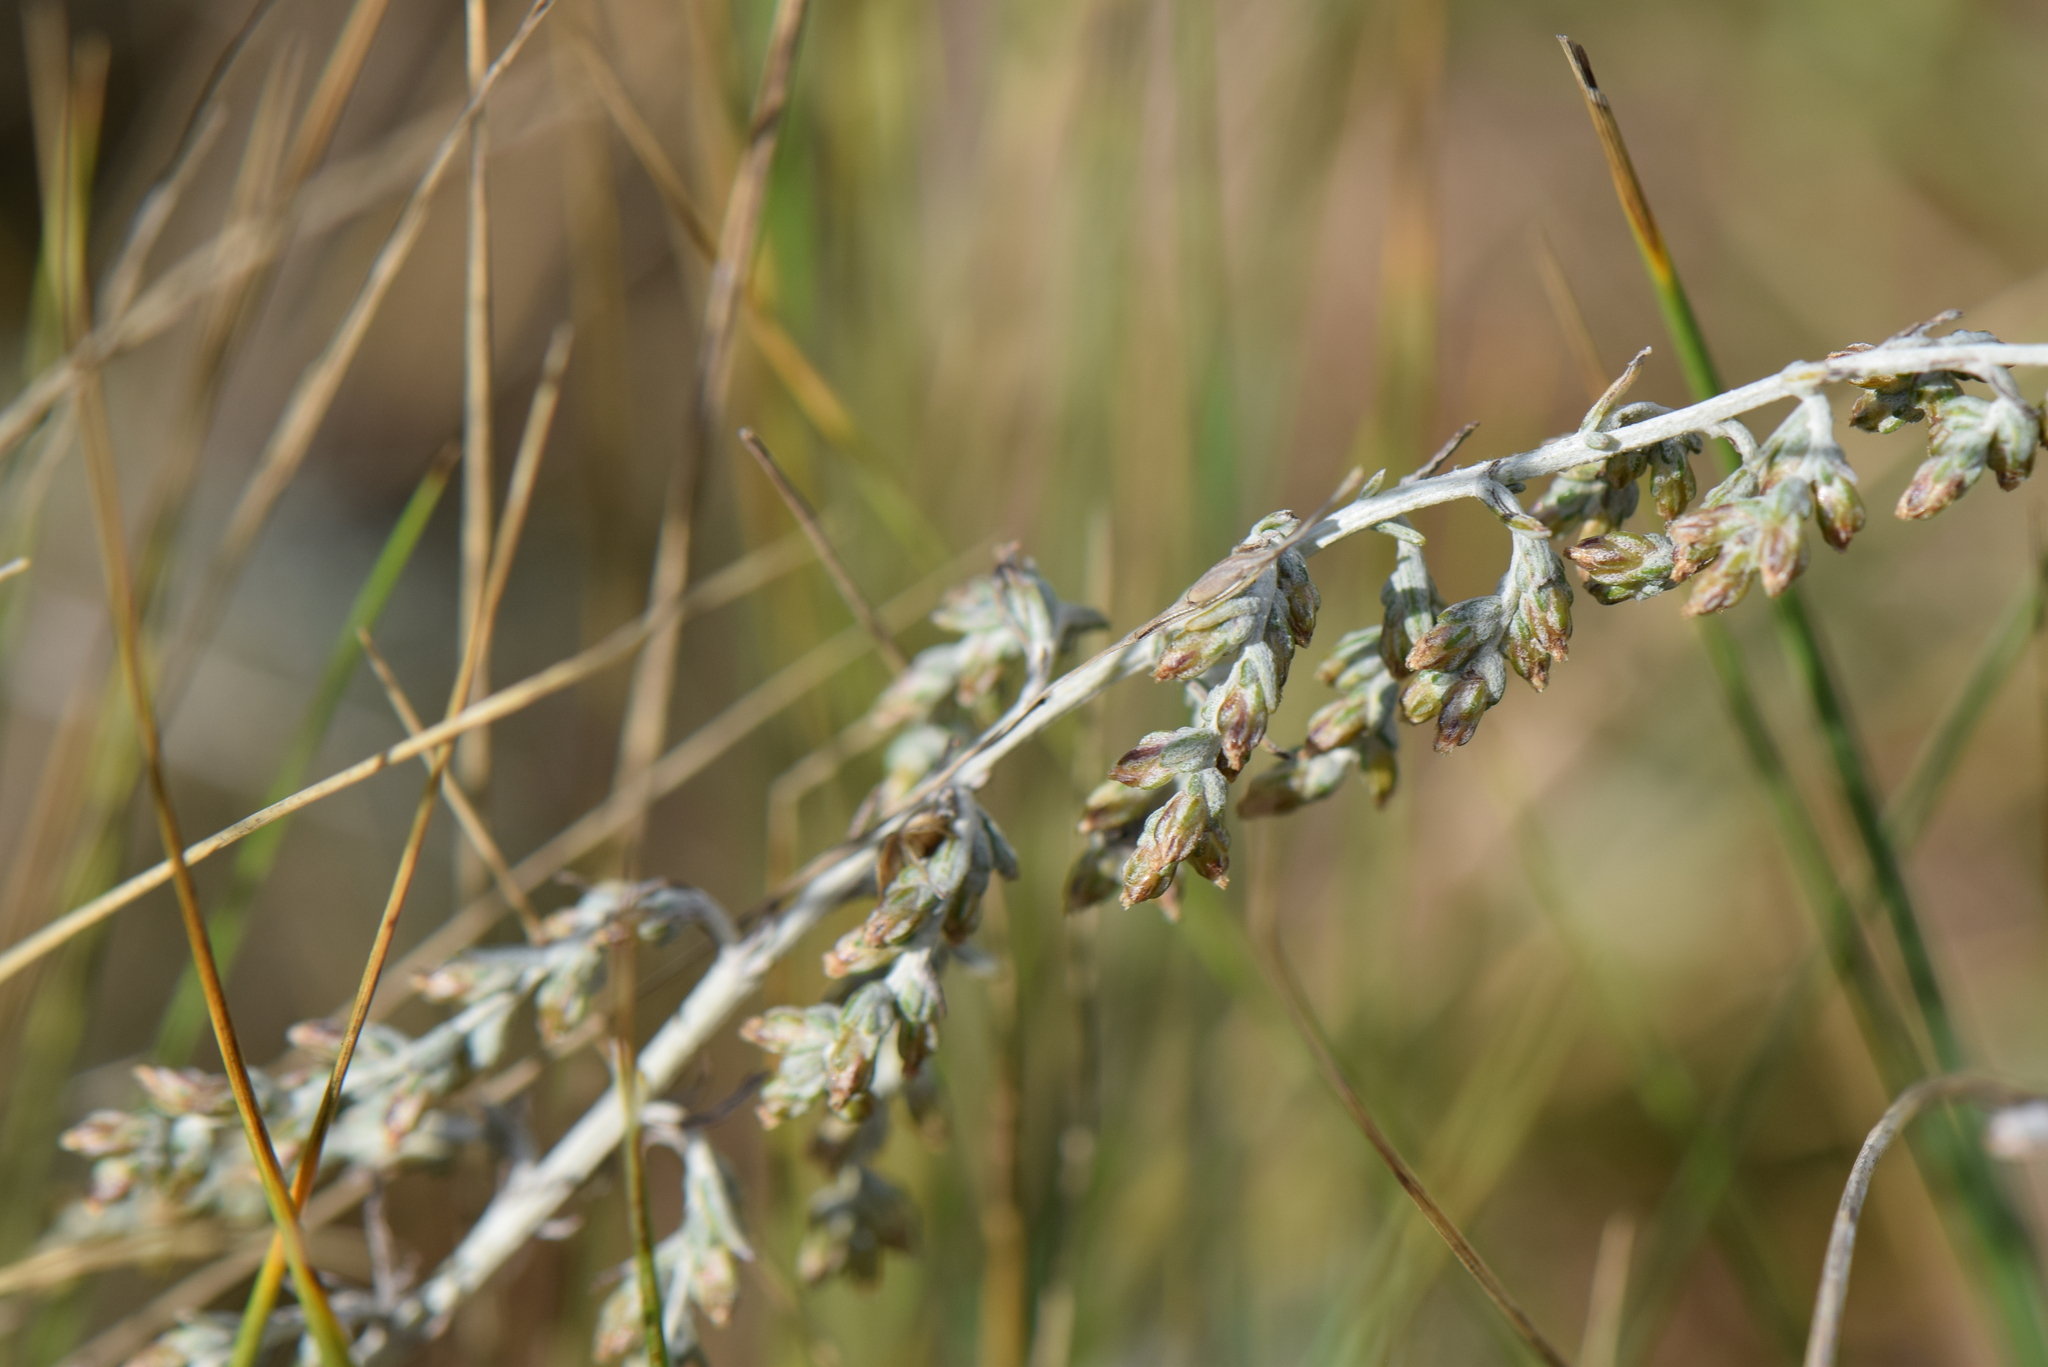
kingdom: Plantae
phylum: Tracheophyta
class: Magnoliopsida
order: Asterales
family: Asteraceae
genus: Artemisia
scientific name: Artemisia maritima
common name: Wormseed
